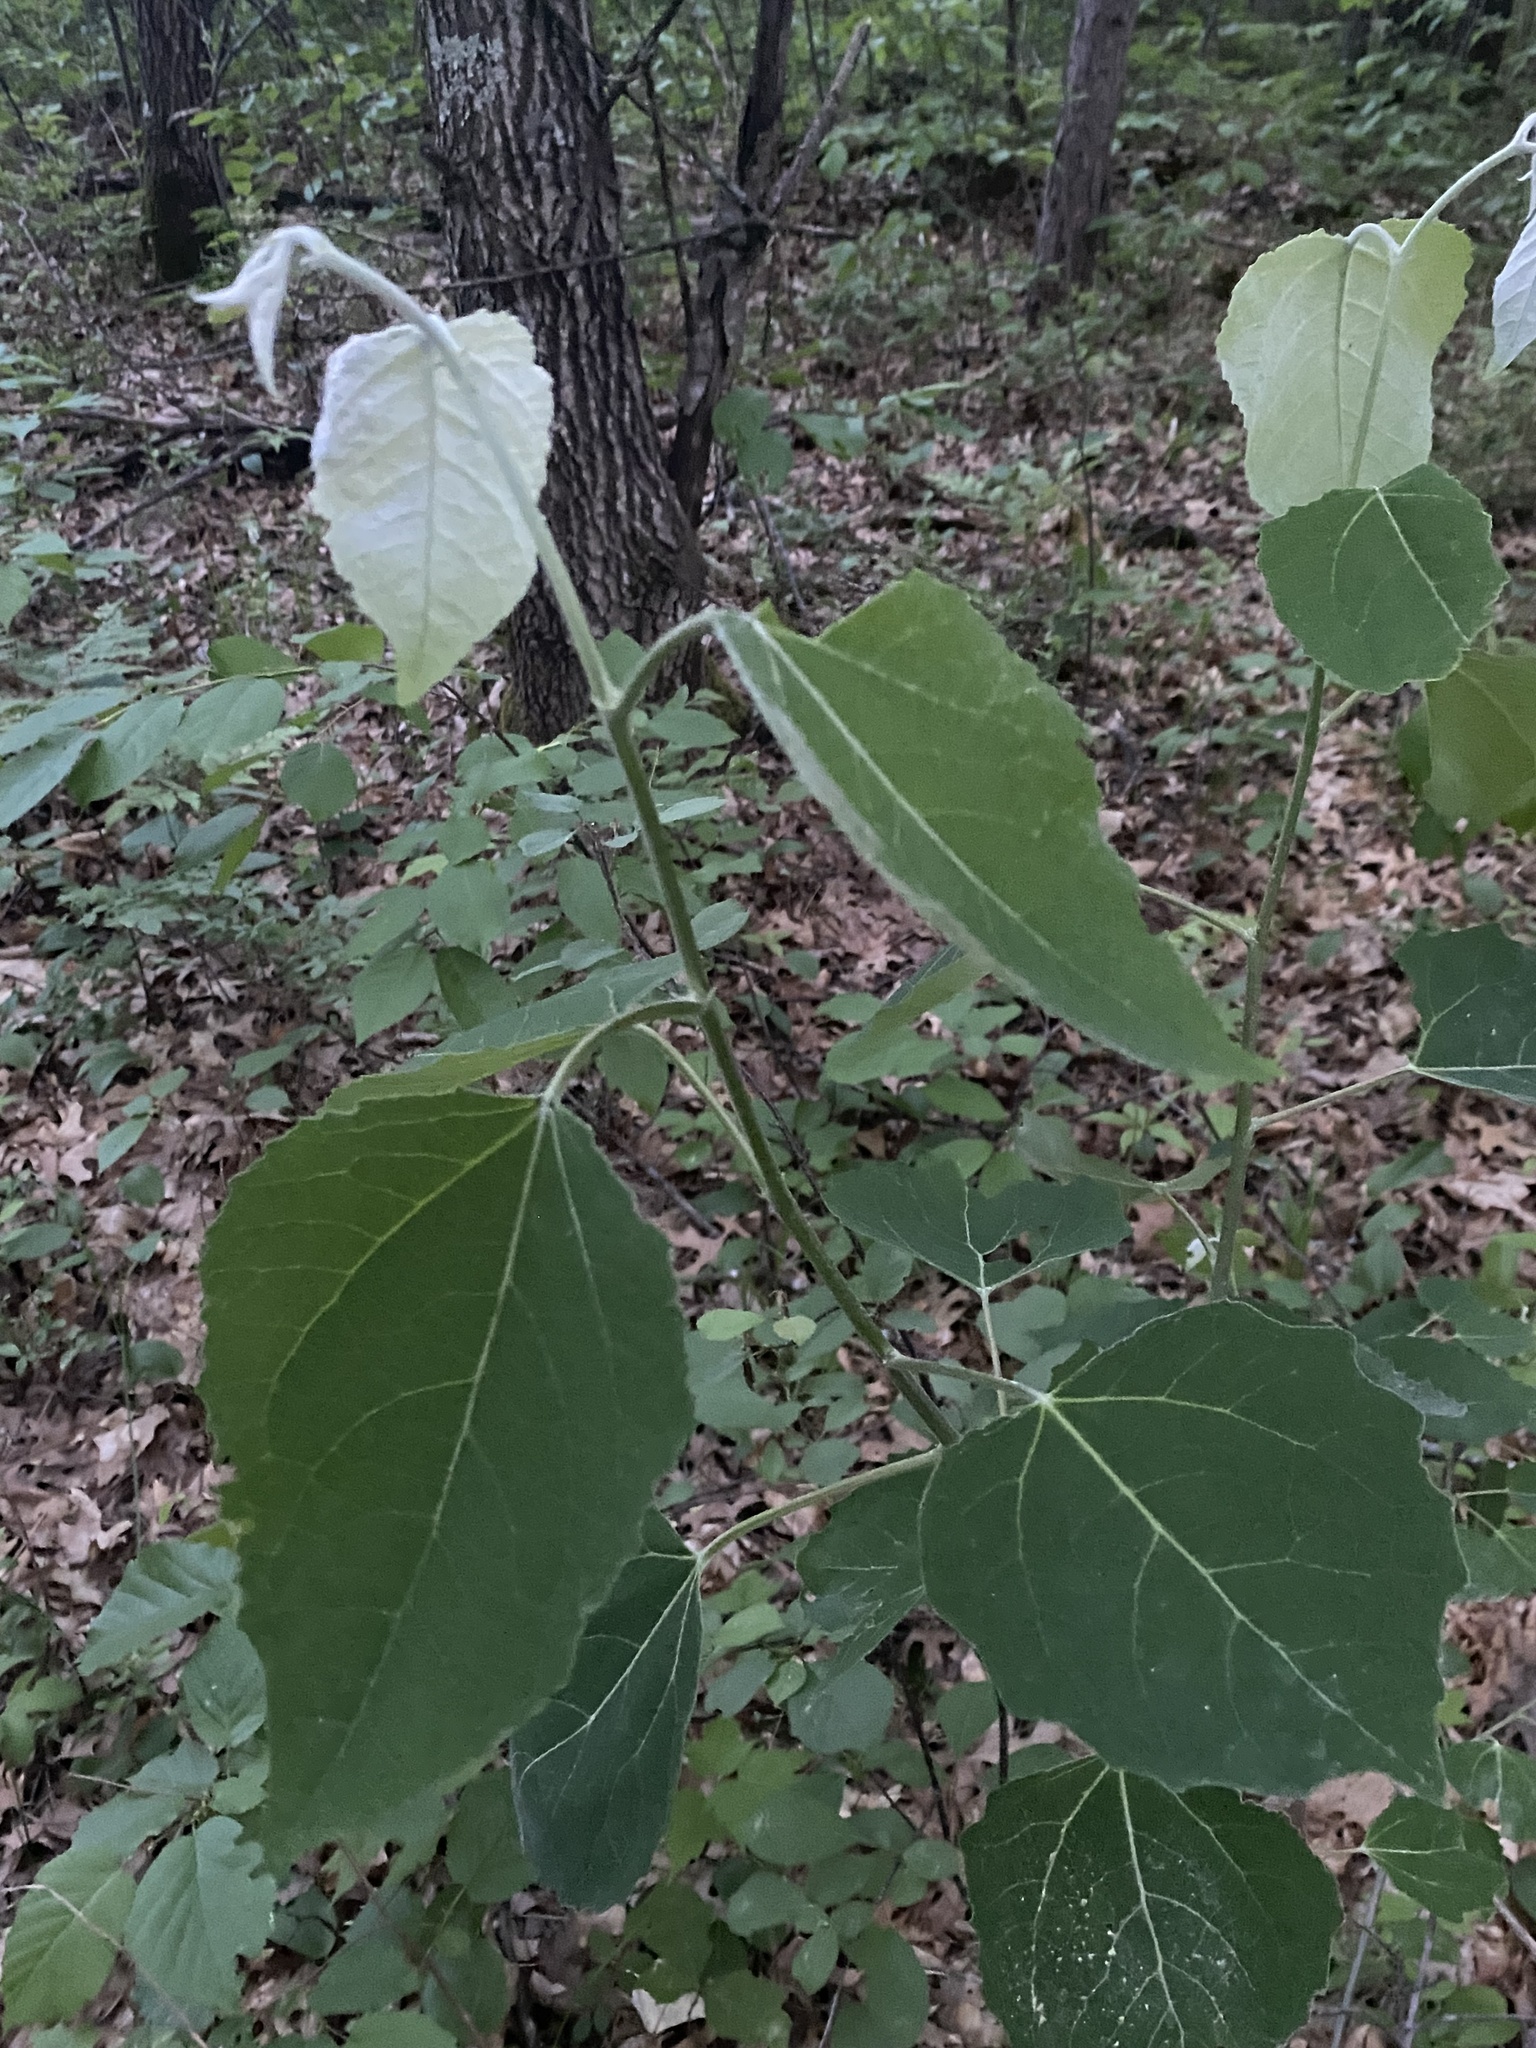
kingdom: Plantae
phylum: Tracheophyta
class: Magnoliopsida
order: Malpighiales
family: Salicaceae
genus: Populus
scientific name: Populus grandidentata
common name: Bigtooth aspen
